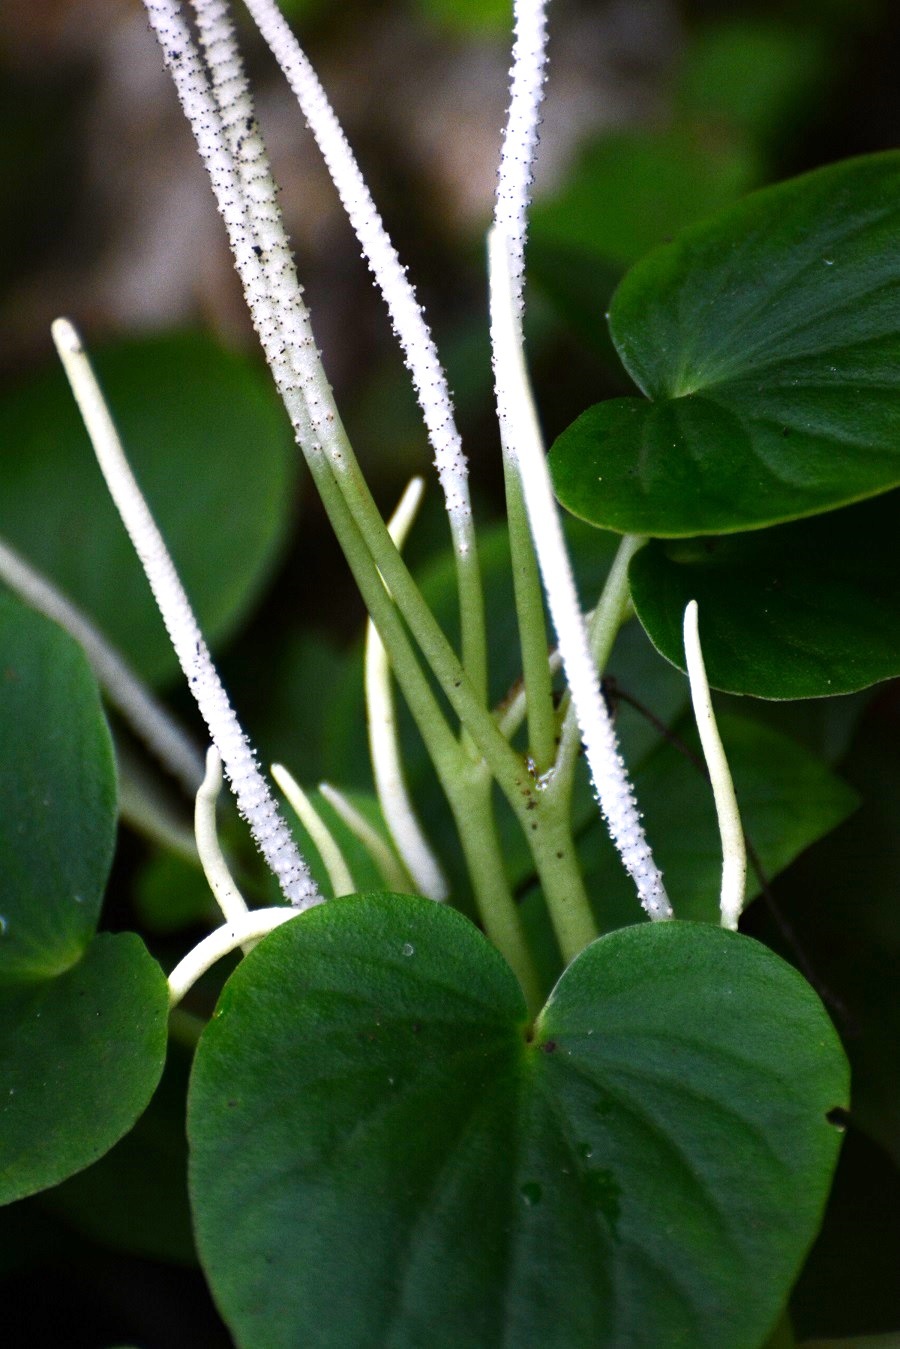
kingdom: Plantae
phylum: Tracheophyta
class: Magnoliopsida
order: Piperales
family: Piperaceae
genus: Peperomia
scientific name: Peperomia lanceolatopeltata
